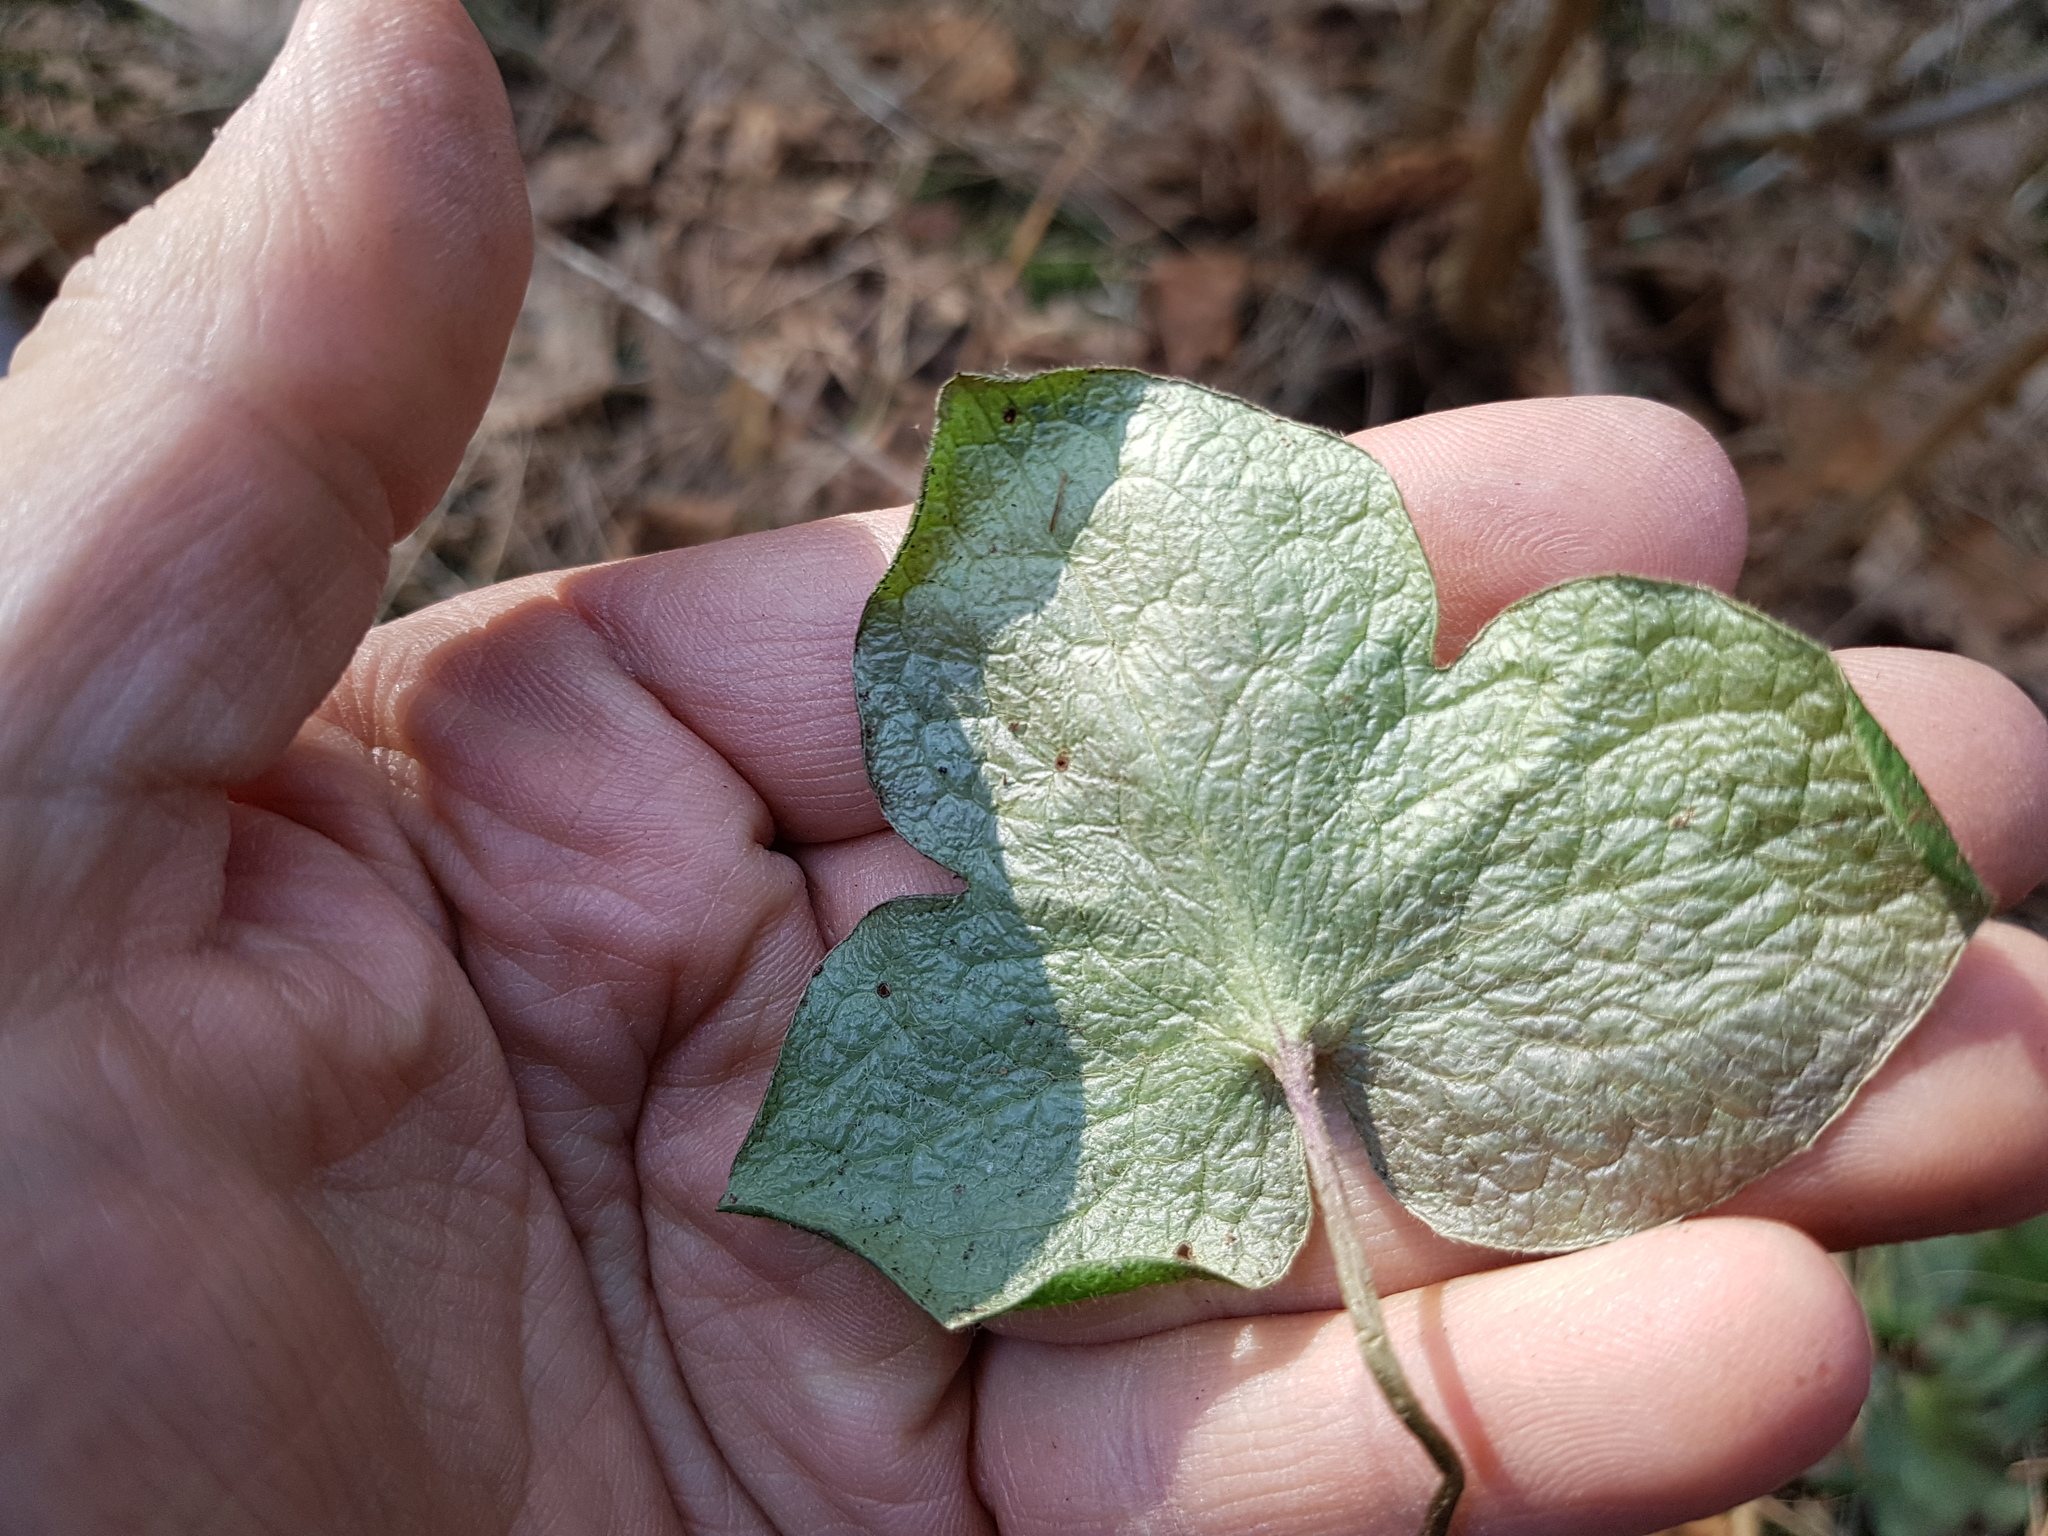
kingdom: Plantae
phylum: Tracheophyta
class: Magnoliopsida
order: Ranunculales
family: Ranunculaceae
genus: Hepatica
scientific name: Hepatica nobilis
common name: Liverleaf
